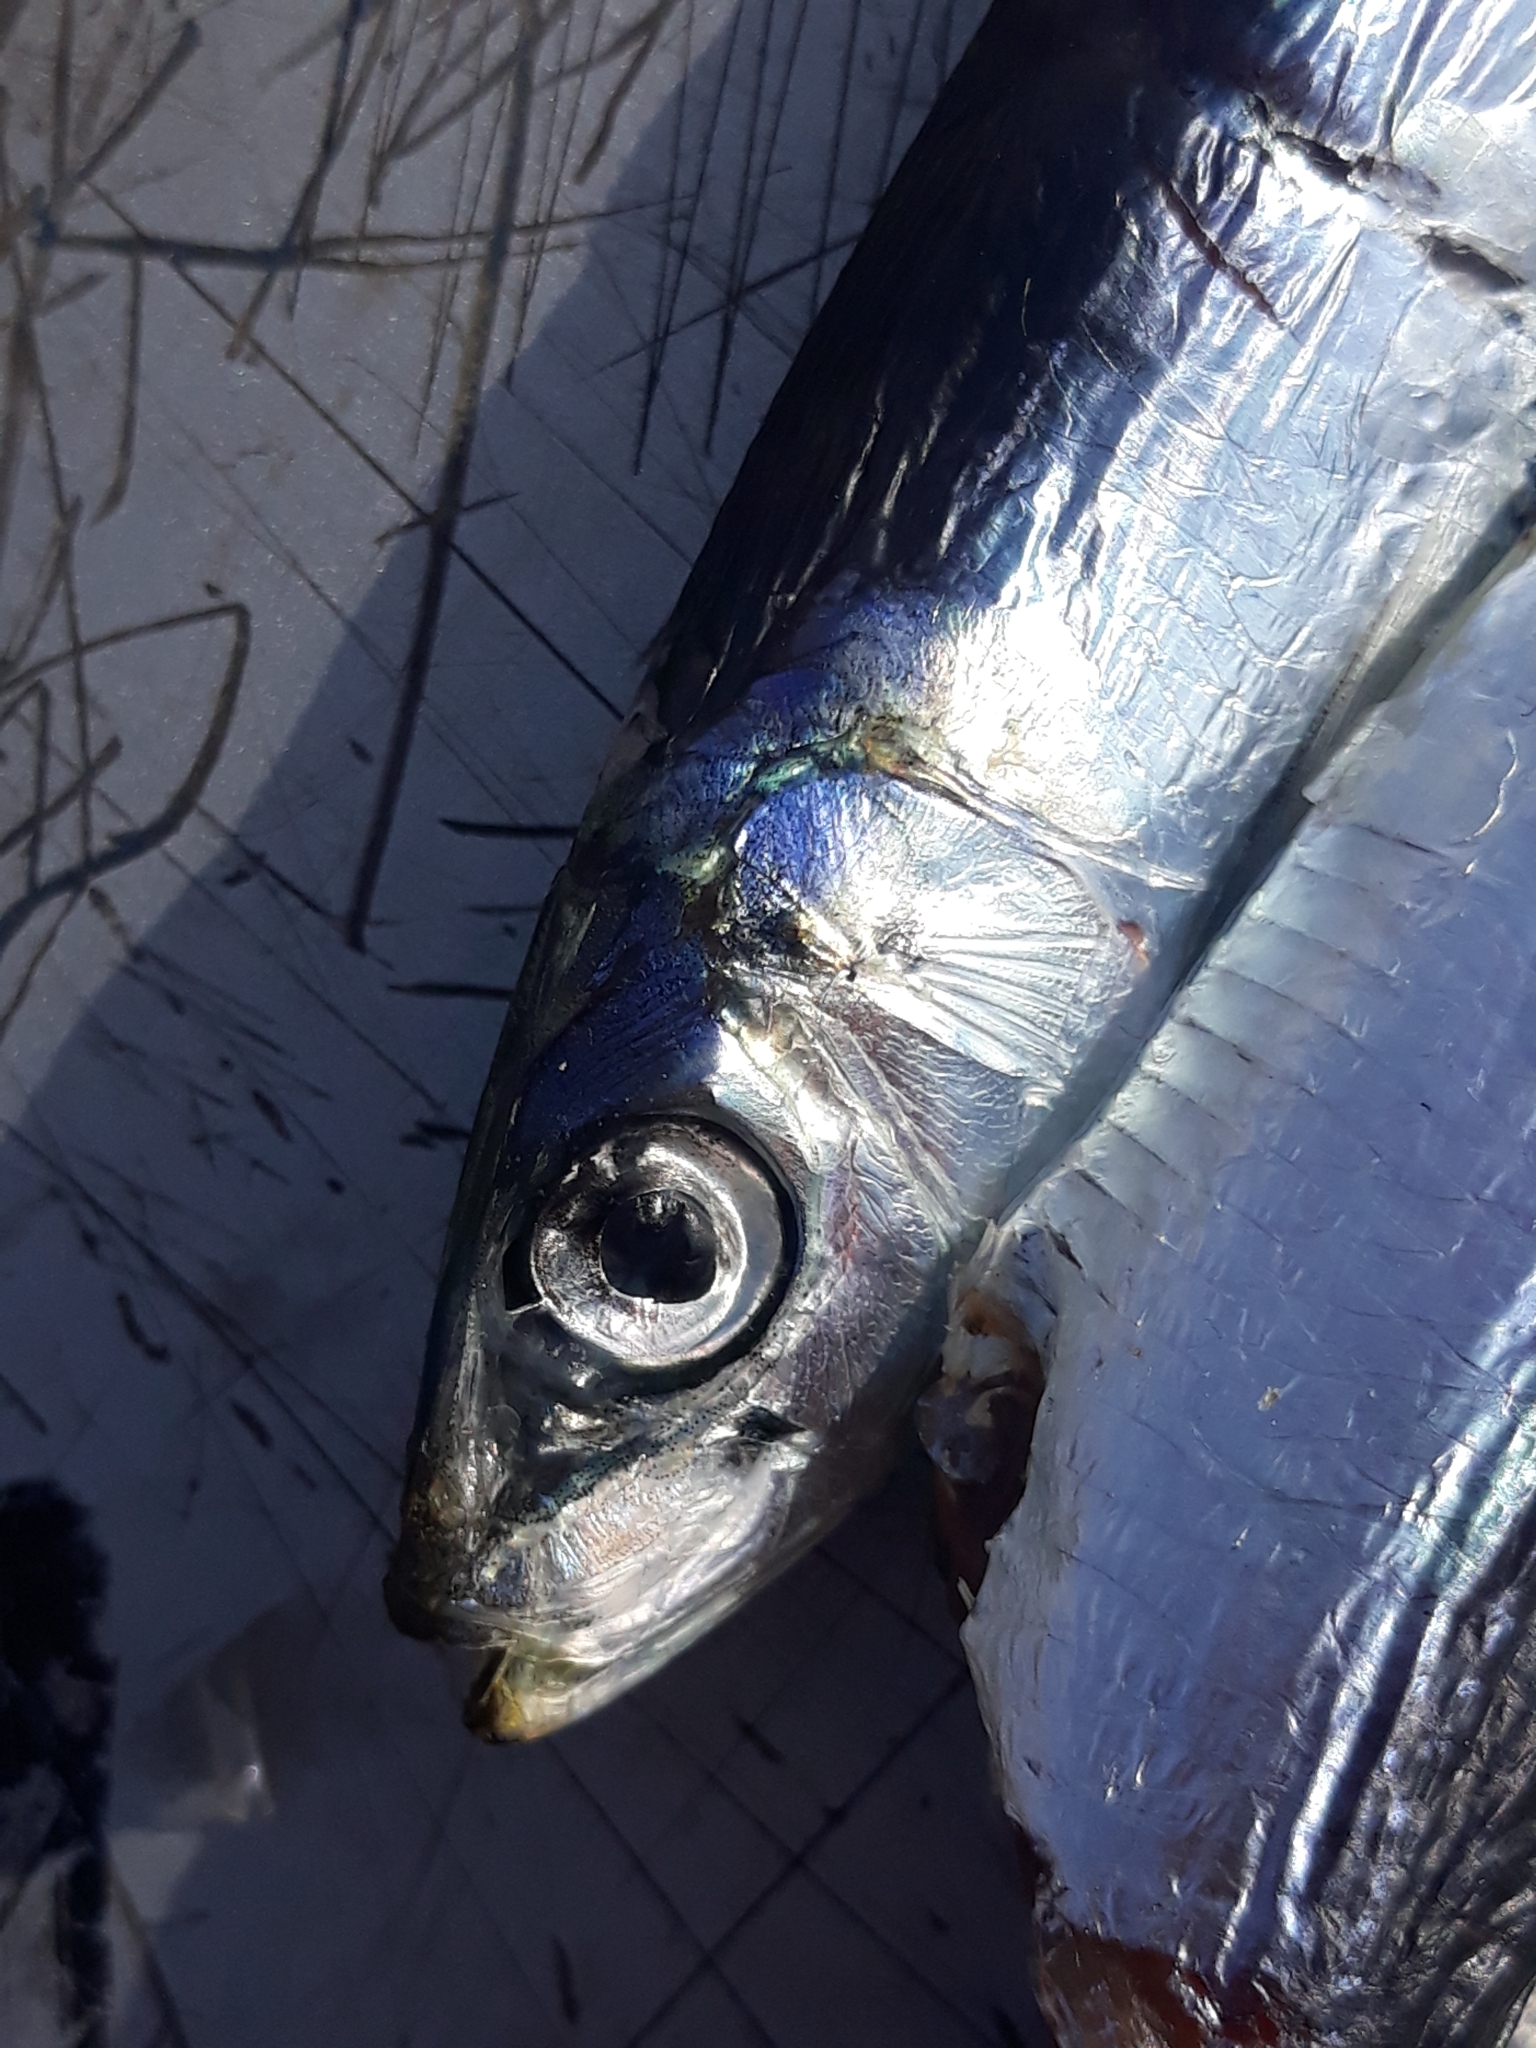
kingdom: Animalia
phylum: Chordata
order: Clupeiformes
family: Clupeidae
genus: Sardina
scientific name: Sardina pilchardus
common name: Pilchard
